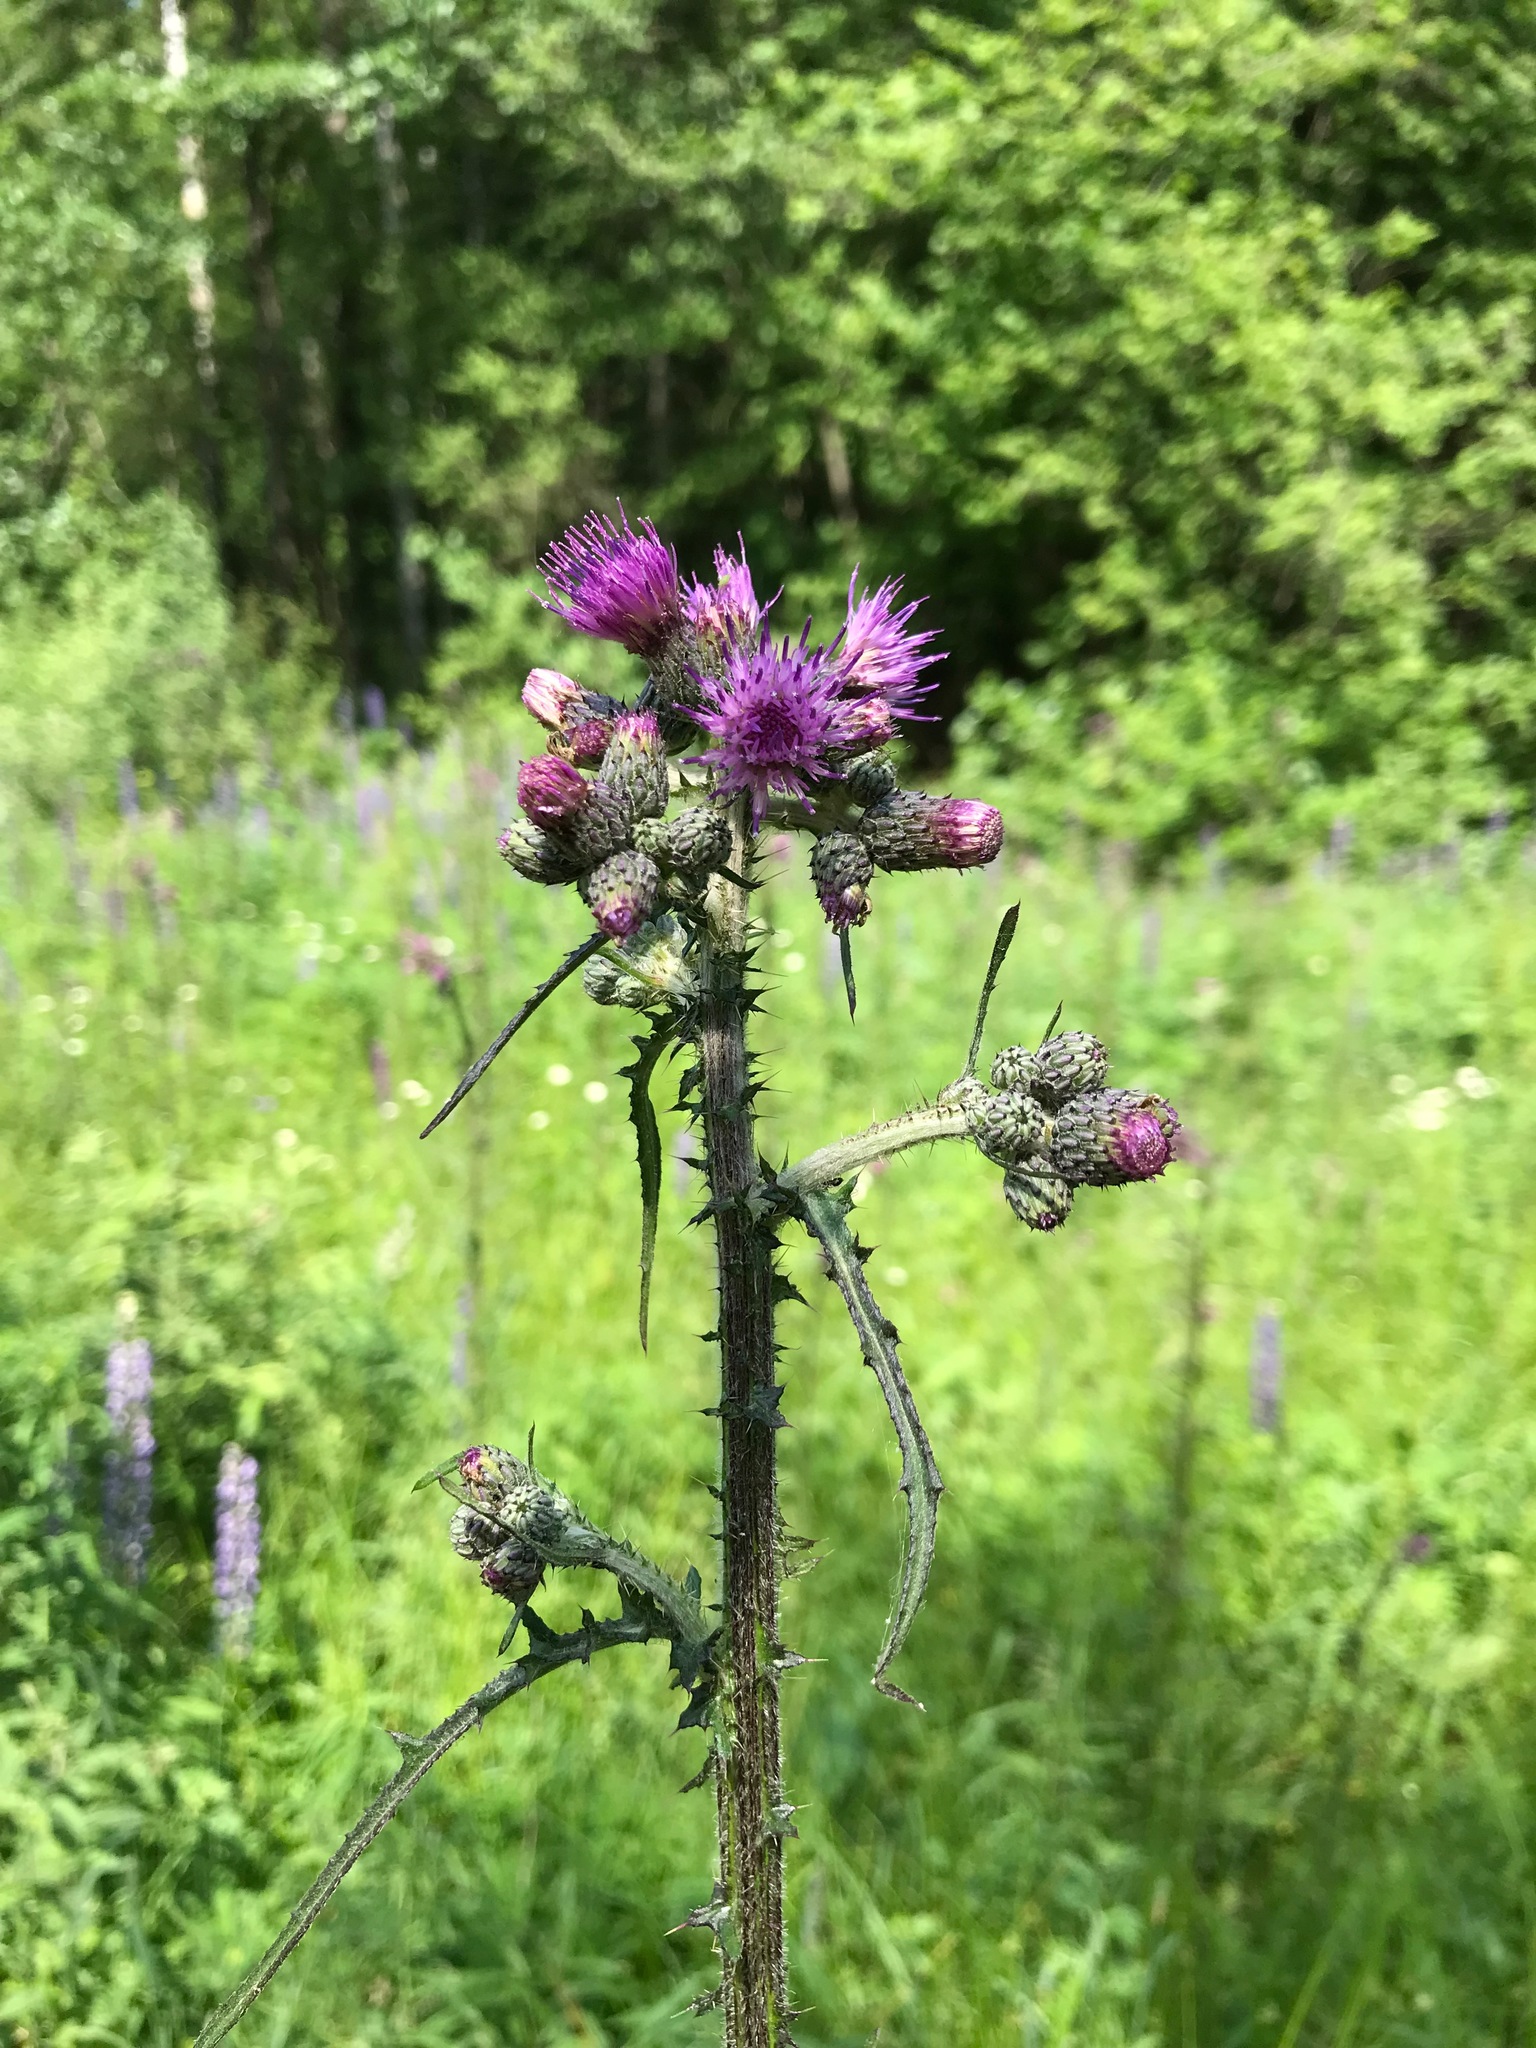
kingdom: Plantae
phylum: Tracheophyta
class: Magnoliopsida
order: Asterales
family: Asteraceae
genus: Cirsium
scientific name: Cirsium palustre
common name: Marsh thistle
